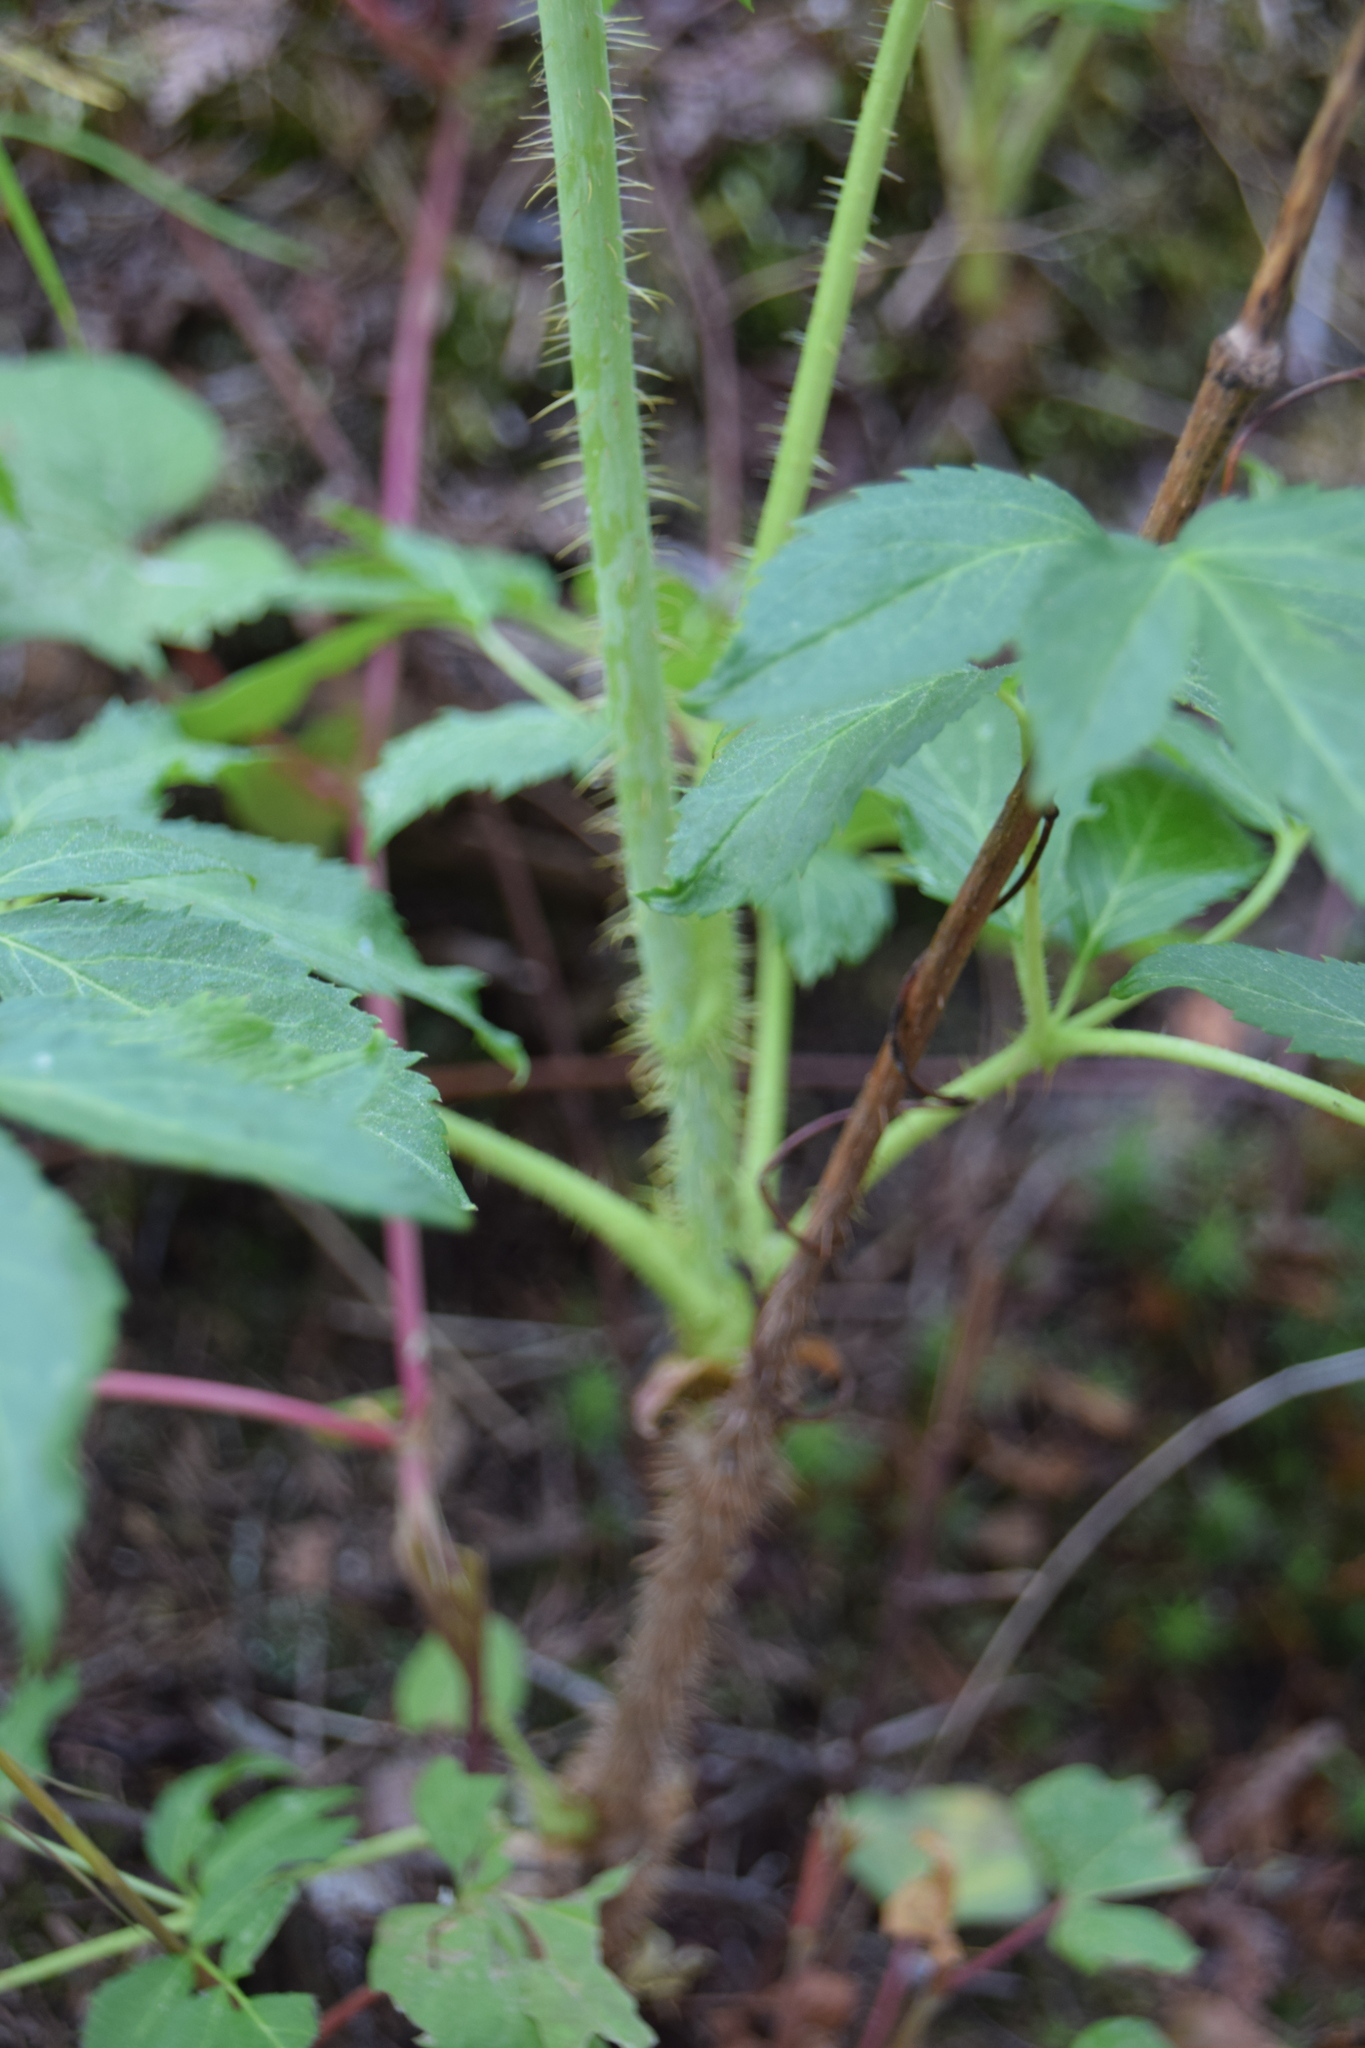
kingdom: Plantae
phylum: Tracheophyta
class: Magnoliopsida
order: Apiales
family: Araliaceae
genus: Aralia
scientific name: Aralia hispida
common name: Bristly sarsaparilla
